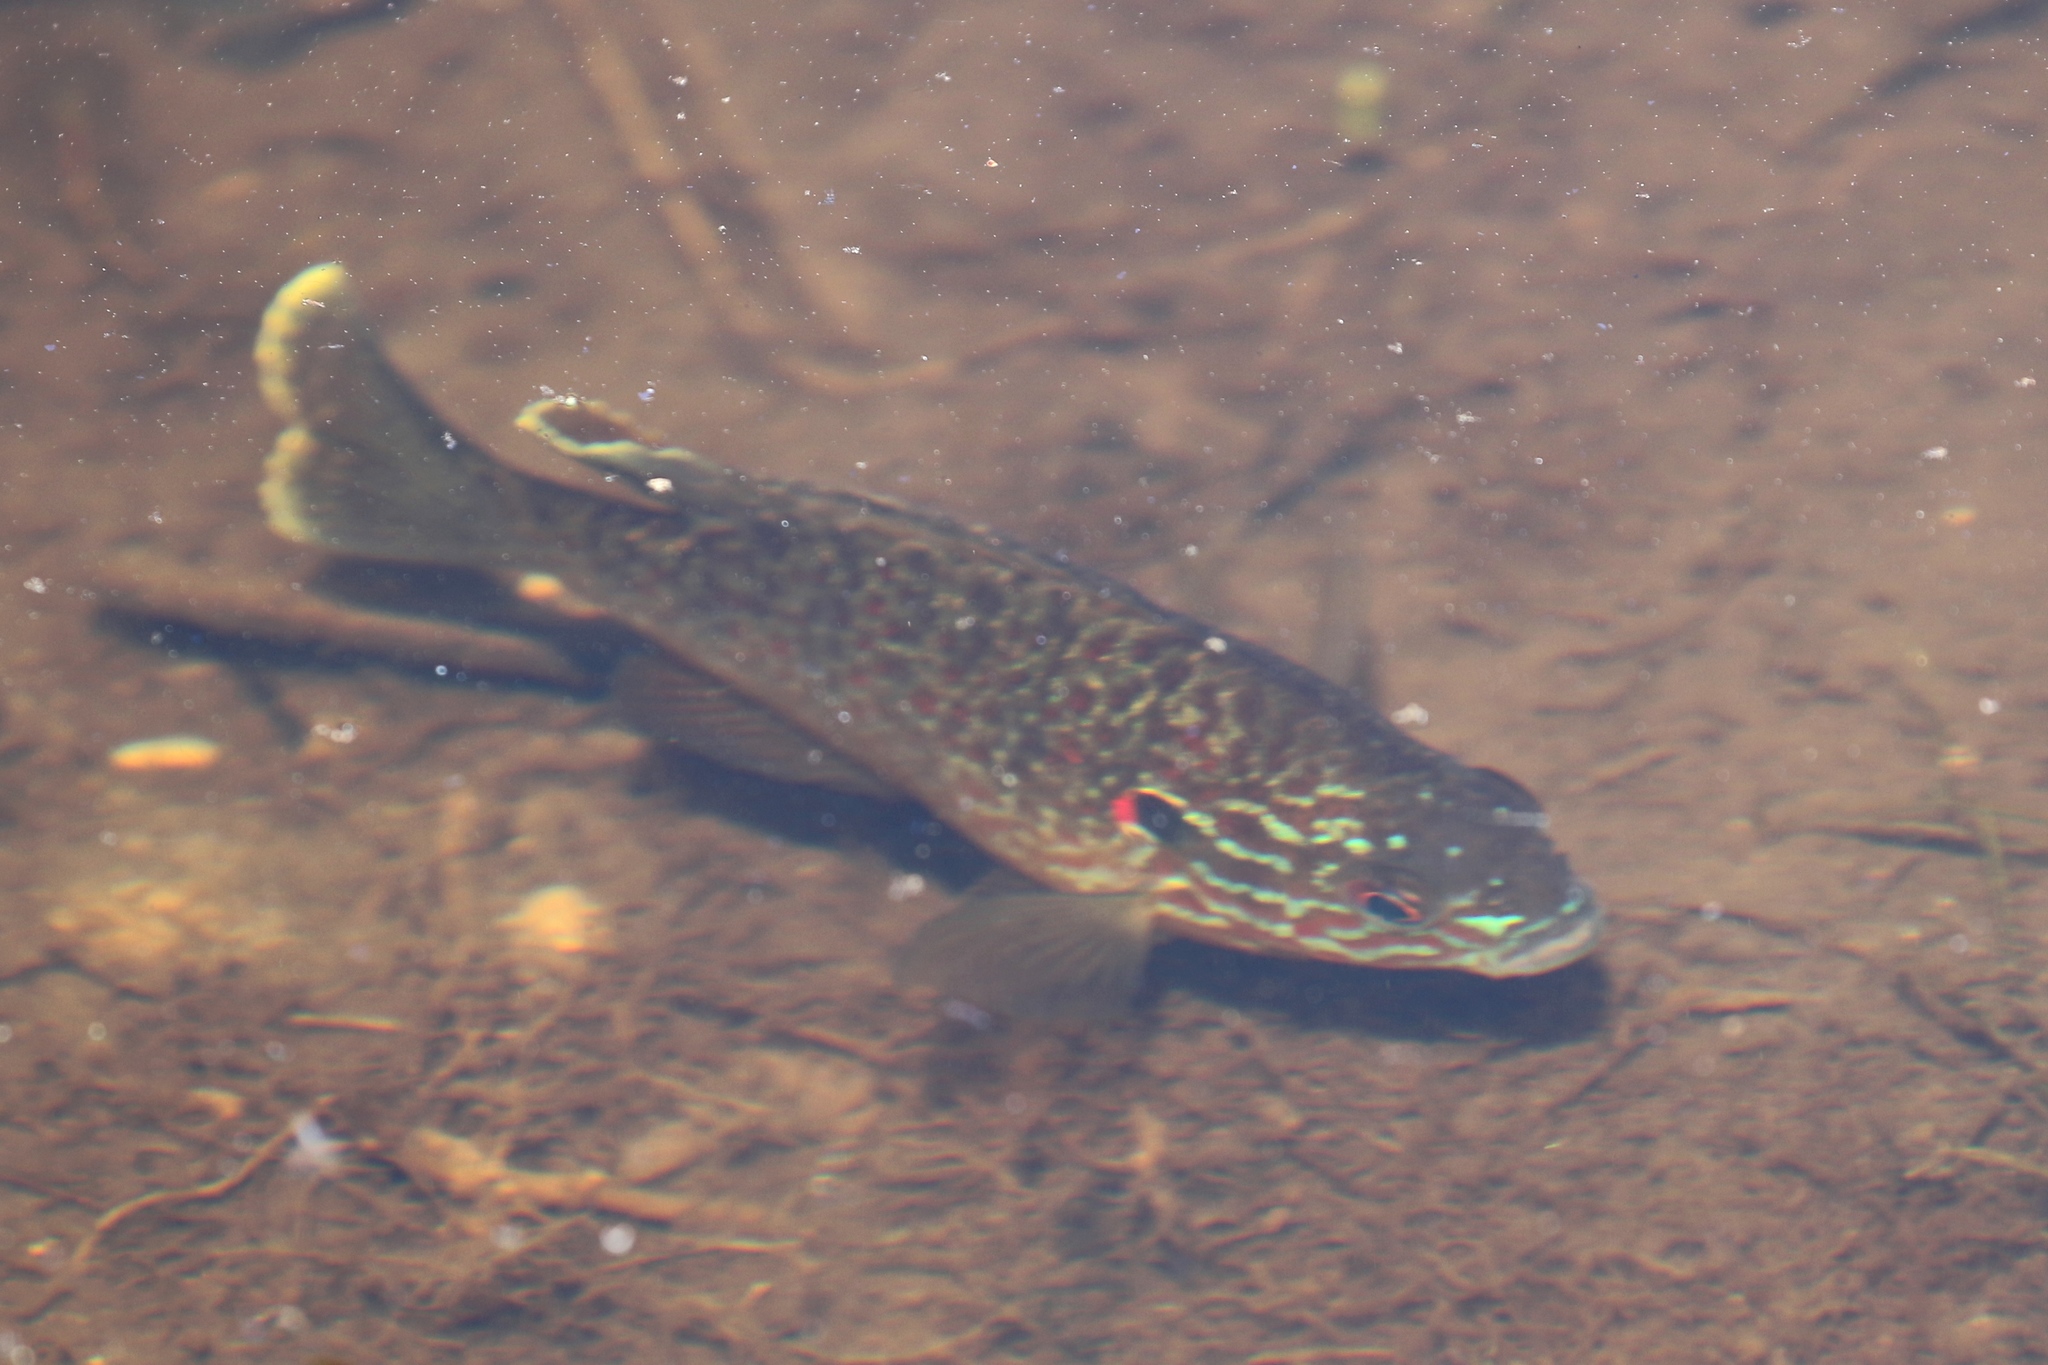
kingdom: Animalia
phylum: Chordata
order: Perciformes
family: Centrarchidae
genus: Lepomis
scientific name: Lepomis gibbosus
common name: Pumpkinseed
